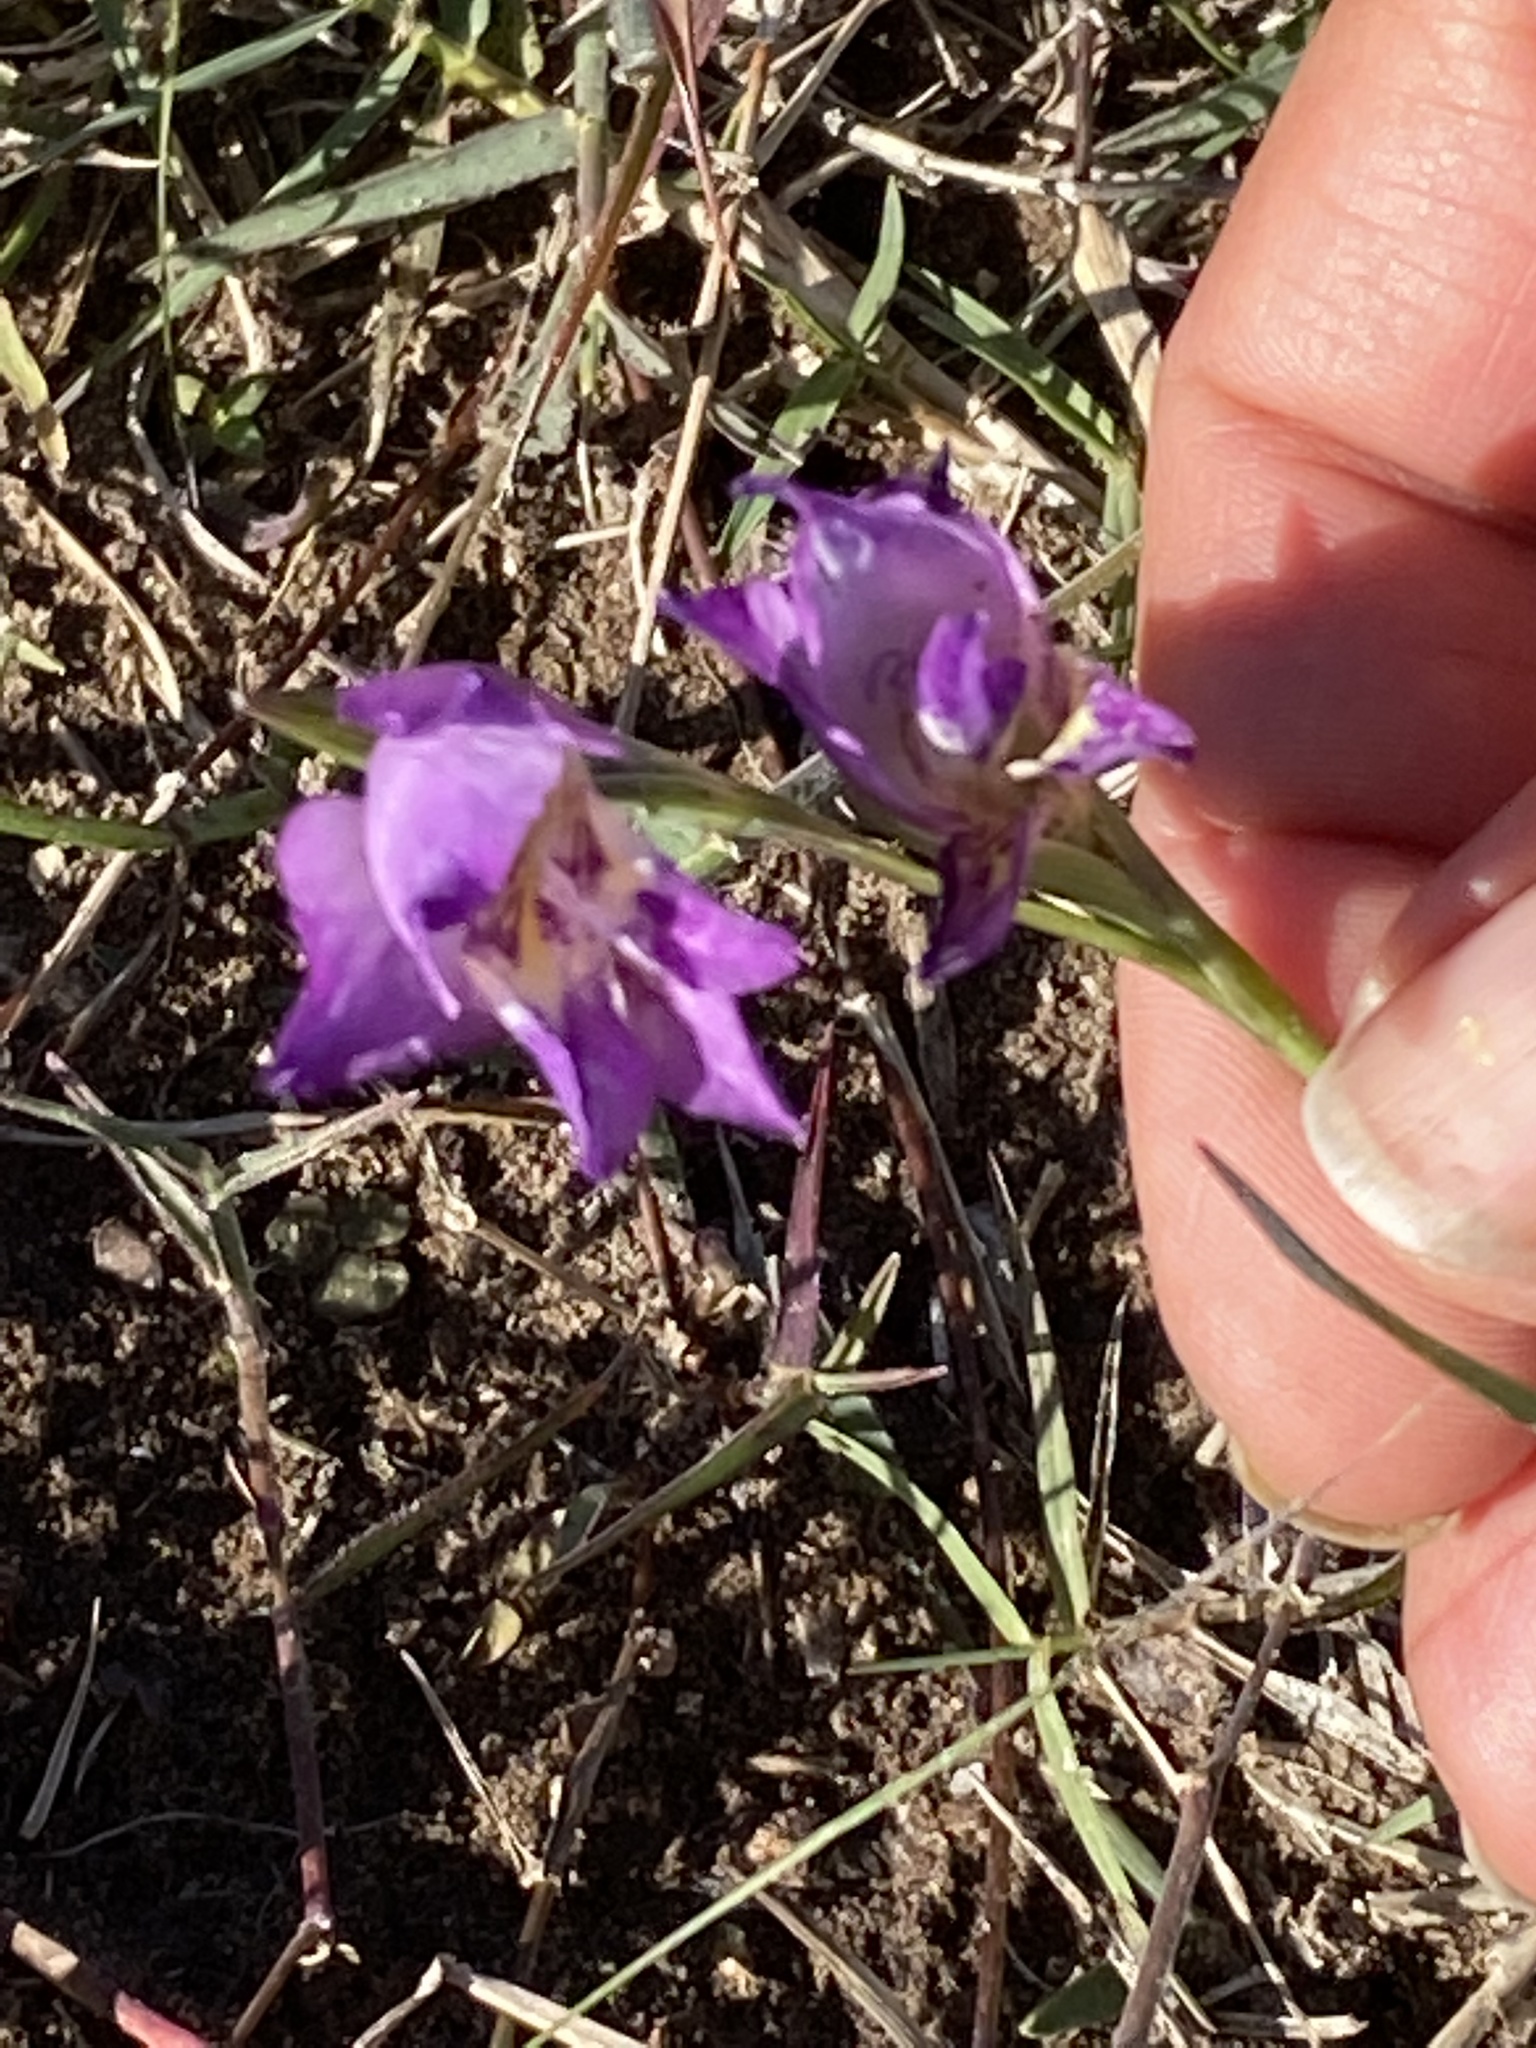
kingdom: Plantae
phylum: Tracheophyta
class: Liliopsida
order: Asparagales
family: Iridaceae
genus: Gladiolus
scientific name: Gladiolus rogersii
